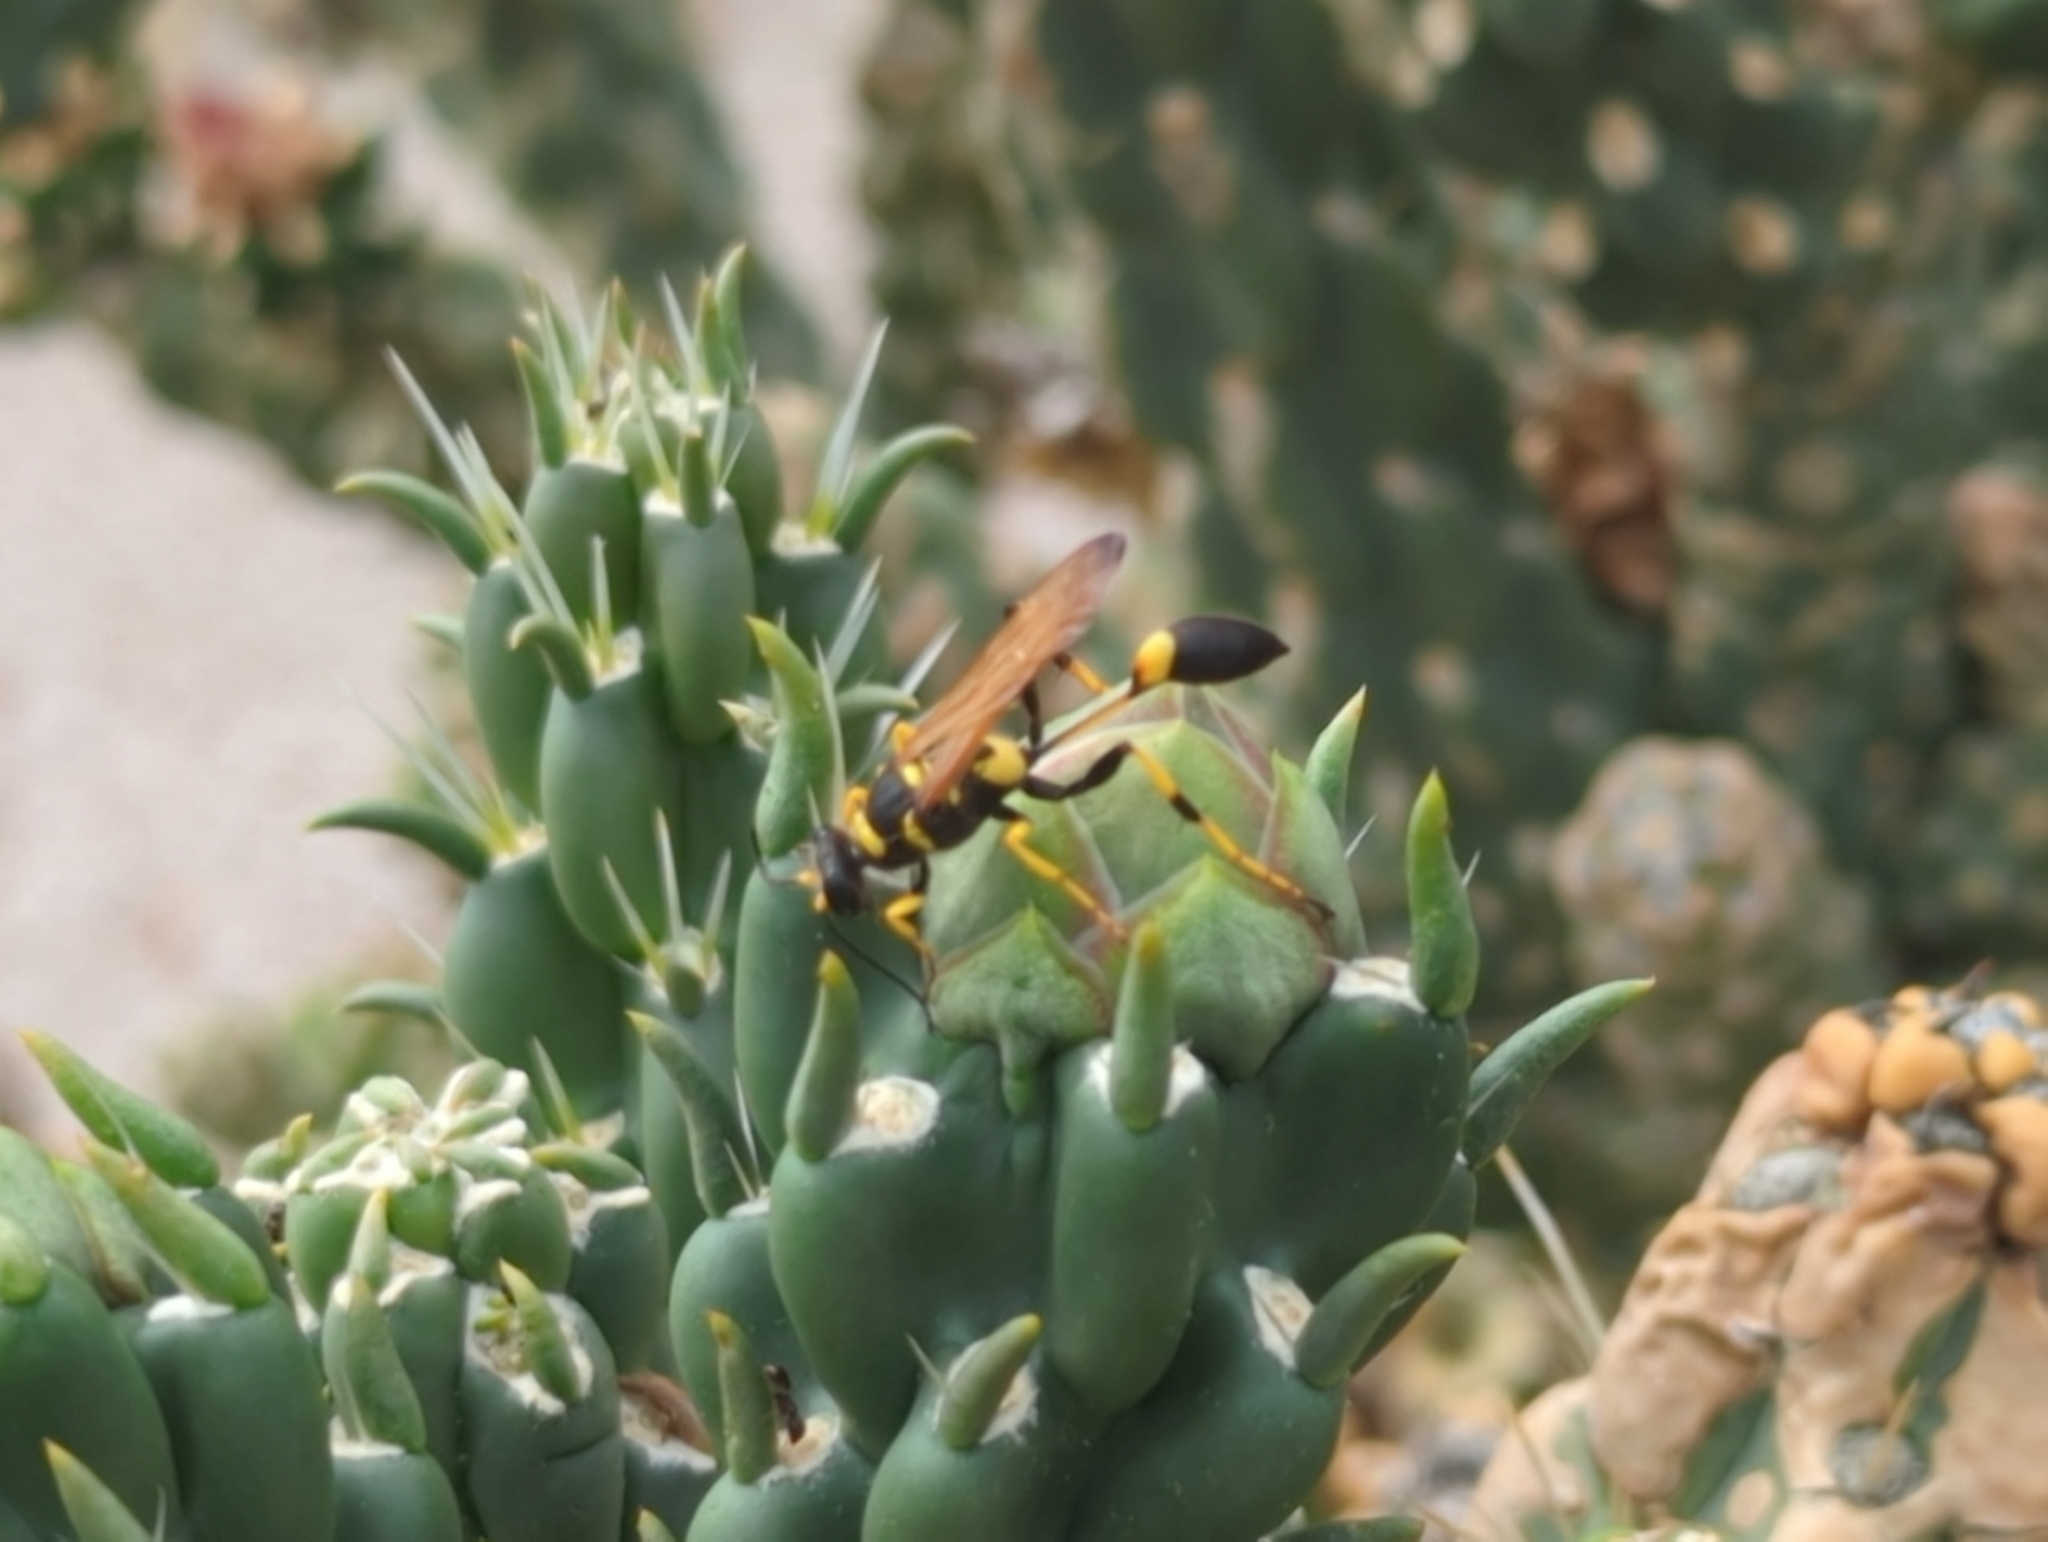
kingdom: Animalia
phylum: Arthropoda
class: Insecta
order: Hymenoptera
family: Sphecidae
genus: Sceliphron
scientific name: Sceliphron caementarium
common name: Mud dauber
